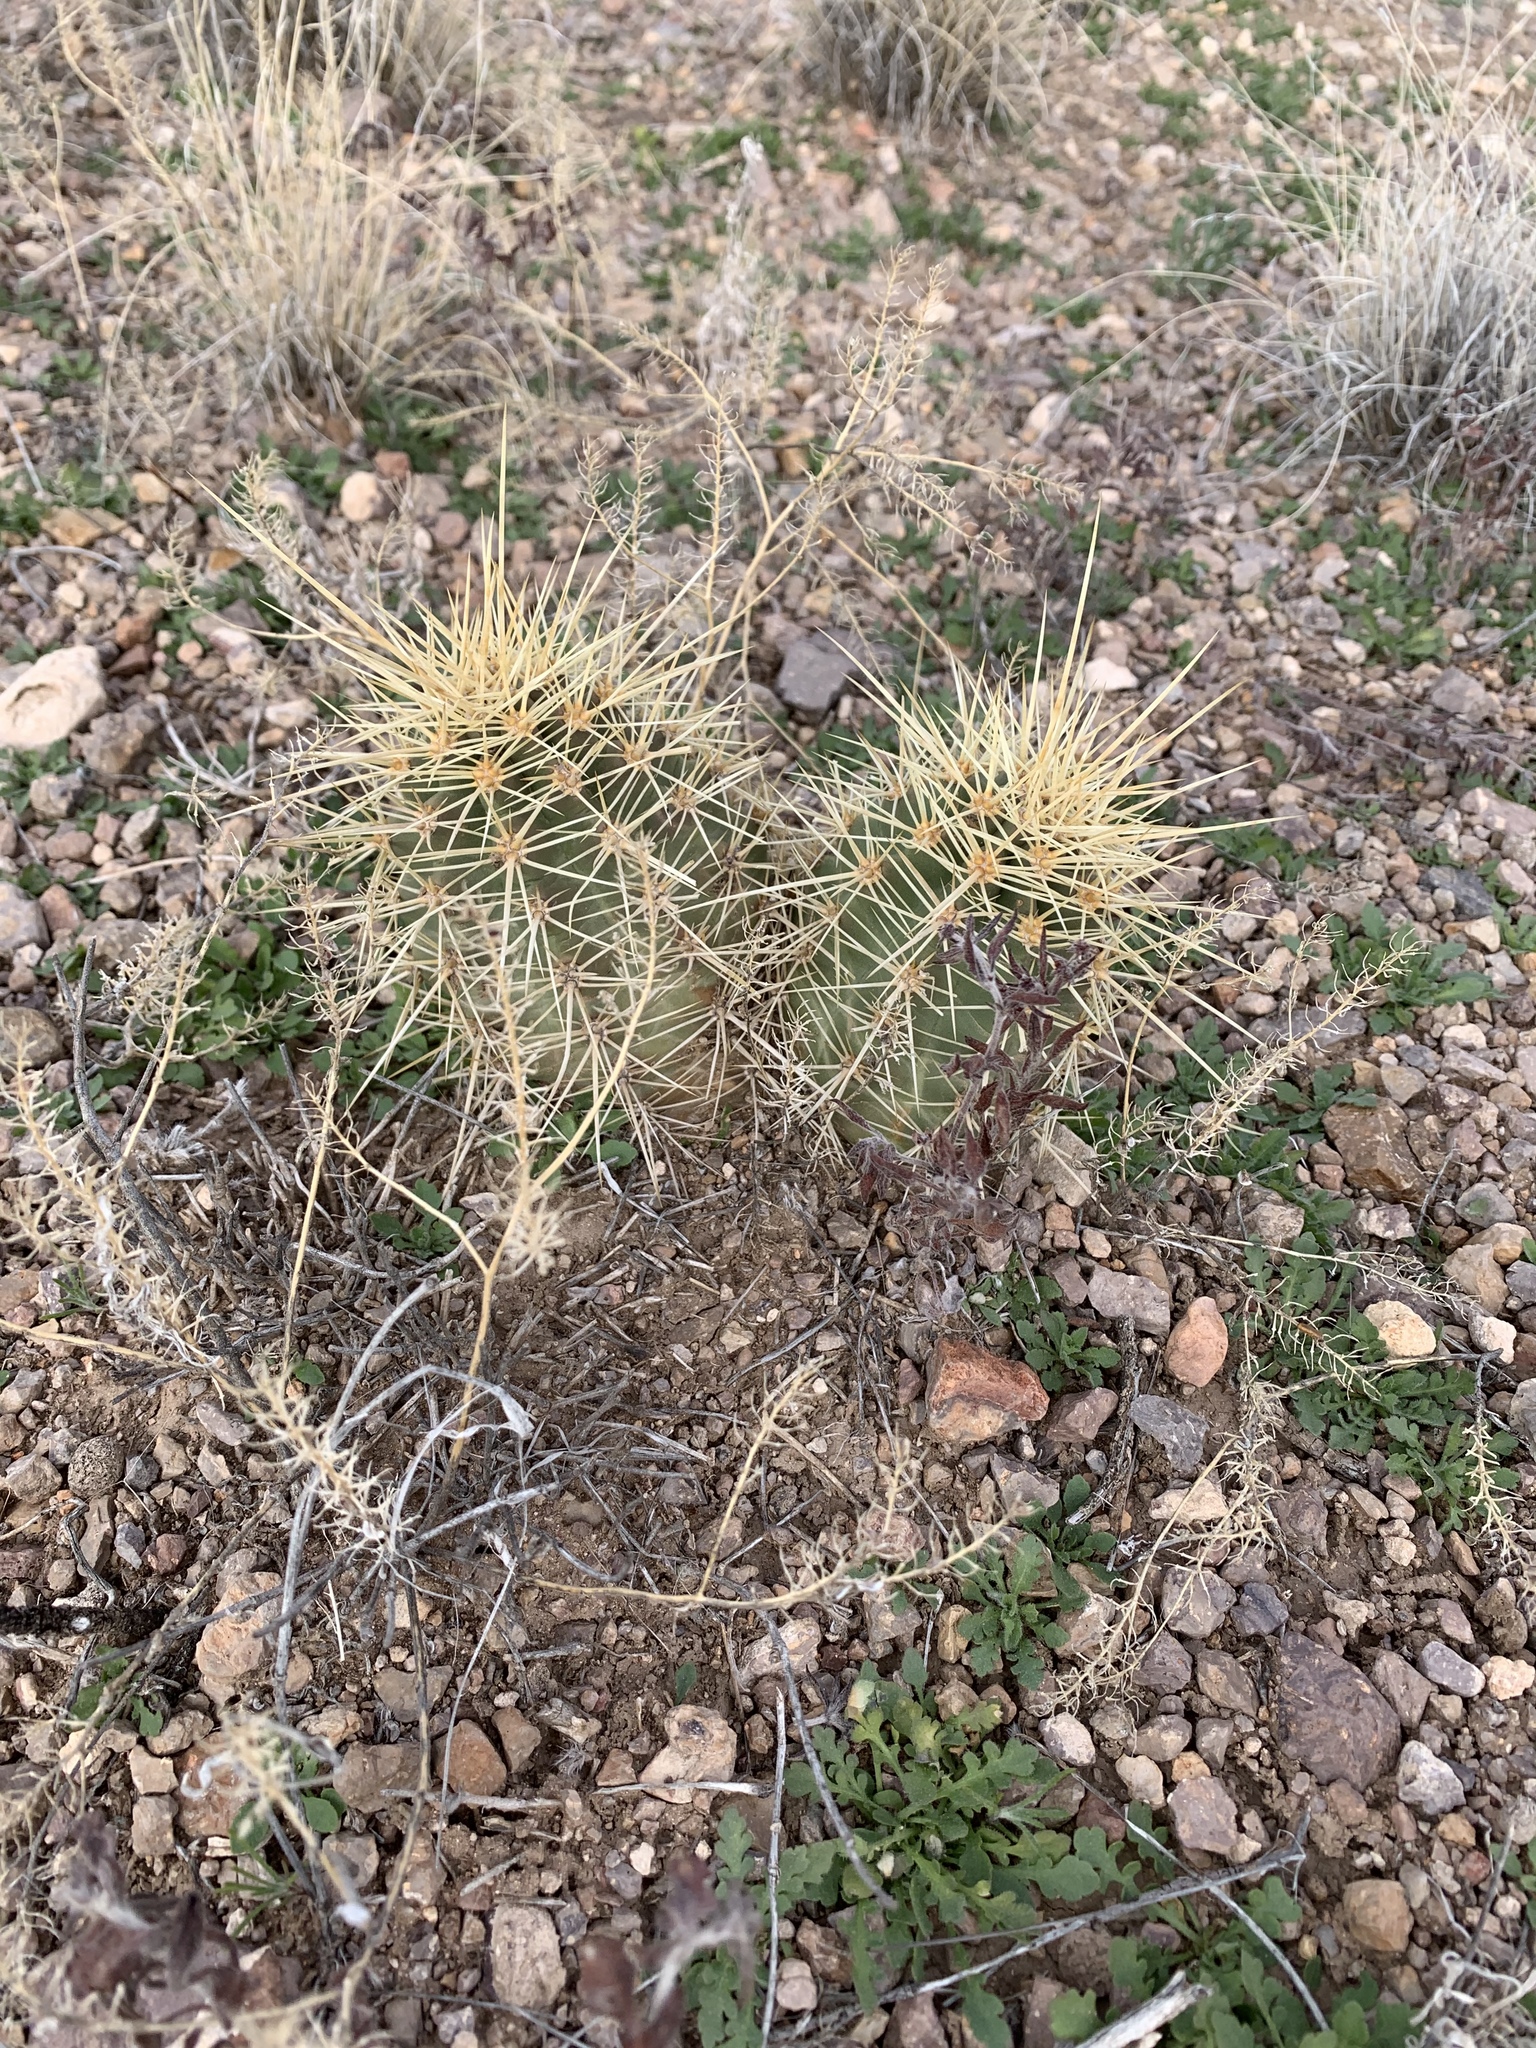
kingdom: Plantae
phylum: Tracheophyta
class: Magnoliopsida
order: Caryophyllales
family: Cactaceae
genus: Echinocereus
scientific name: Echinocereus coccineus
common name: Scarlet hedgehog cactus
